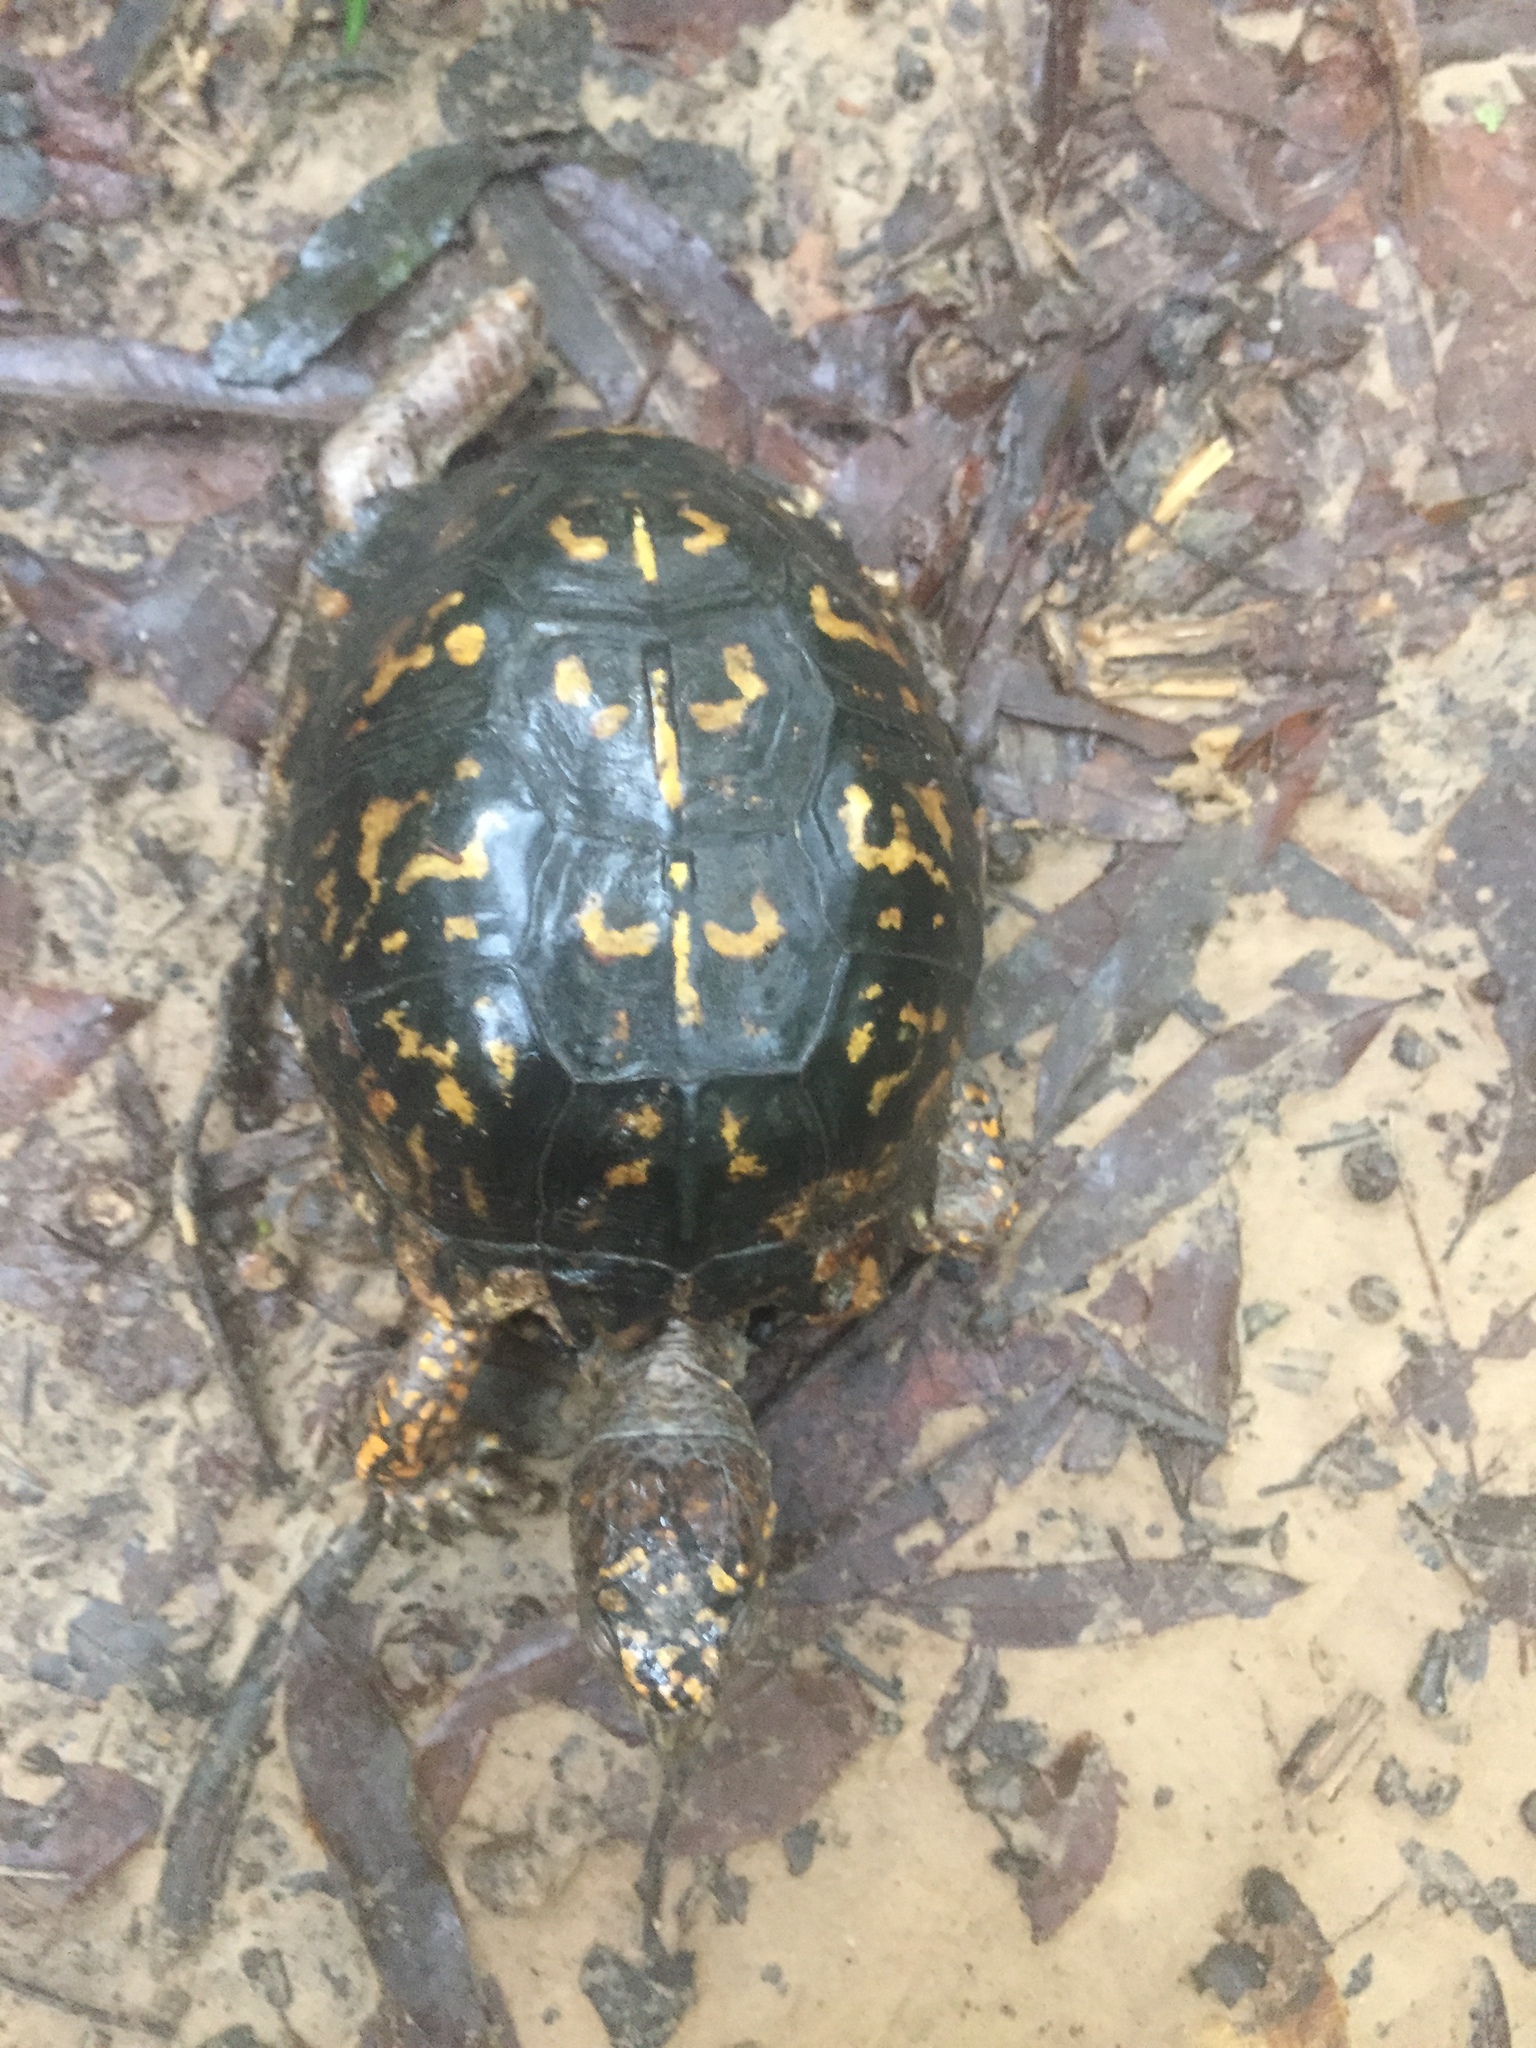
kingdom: Animalia
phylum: Chordata
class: Testudines
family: Emydidae
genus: Terrapene
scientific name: Terrapene carolina
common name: Common box turtle
